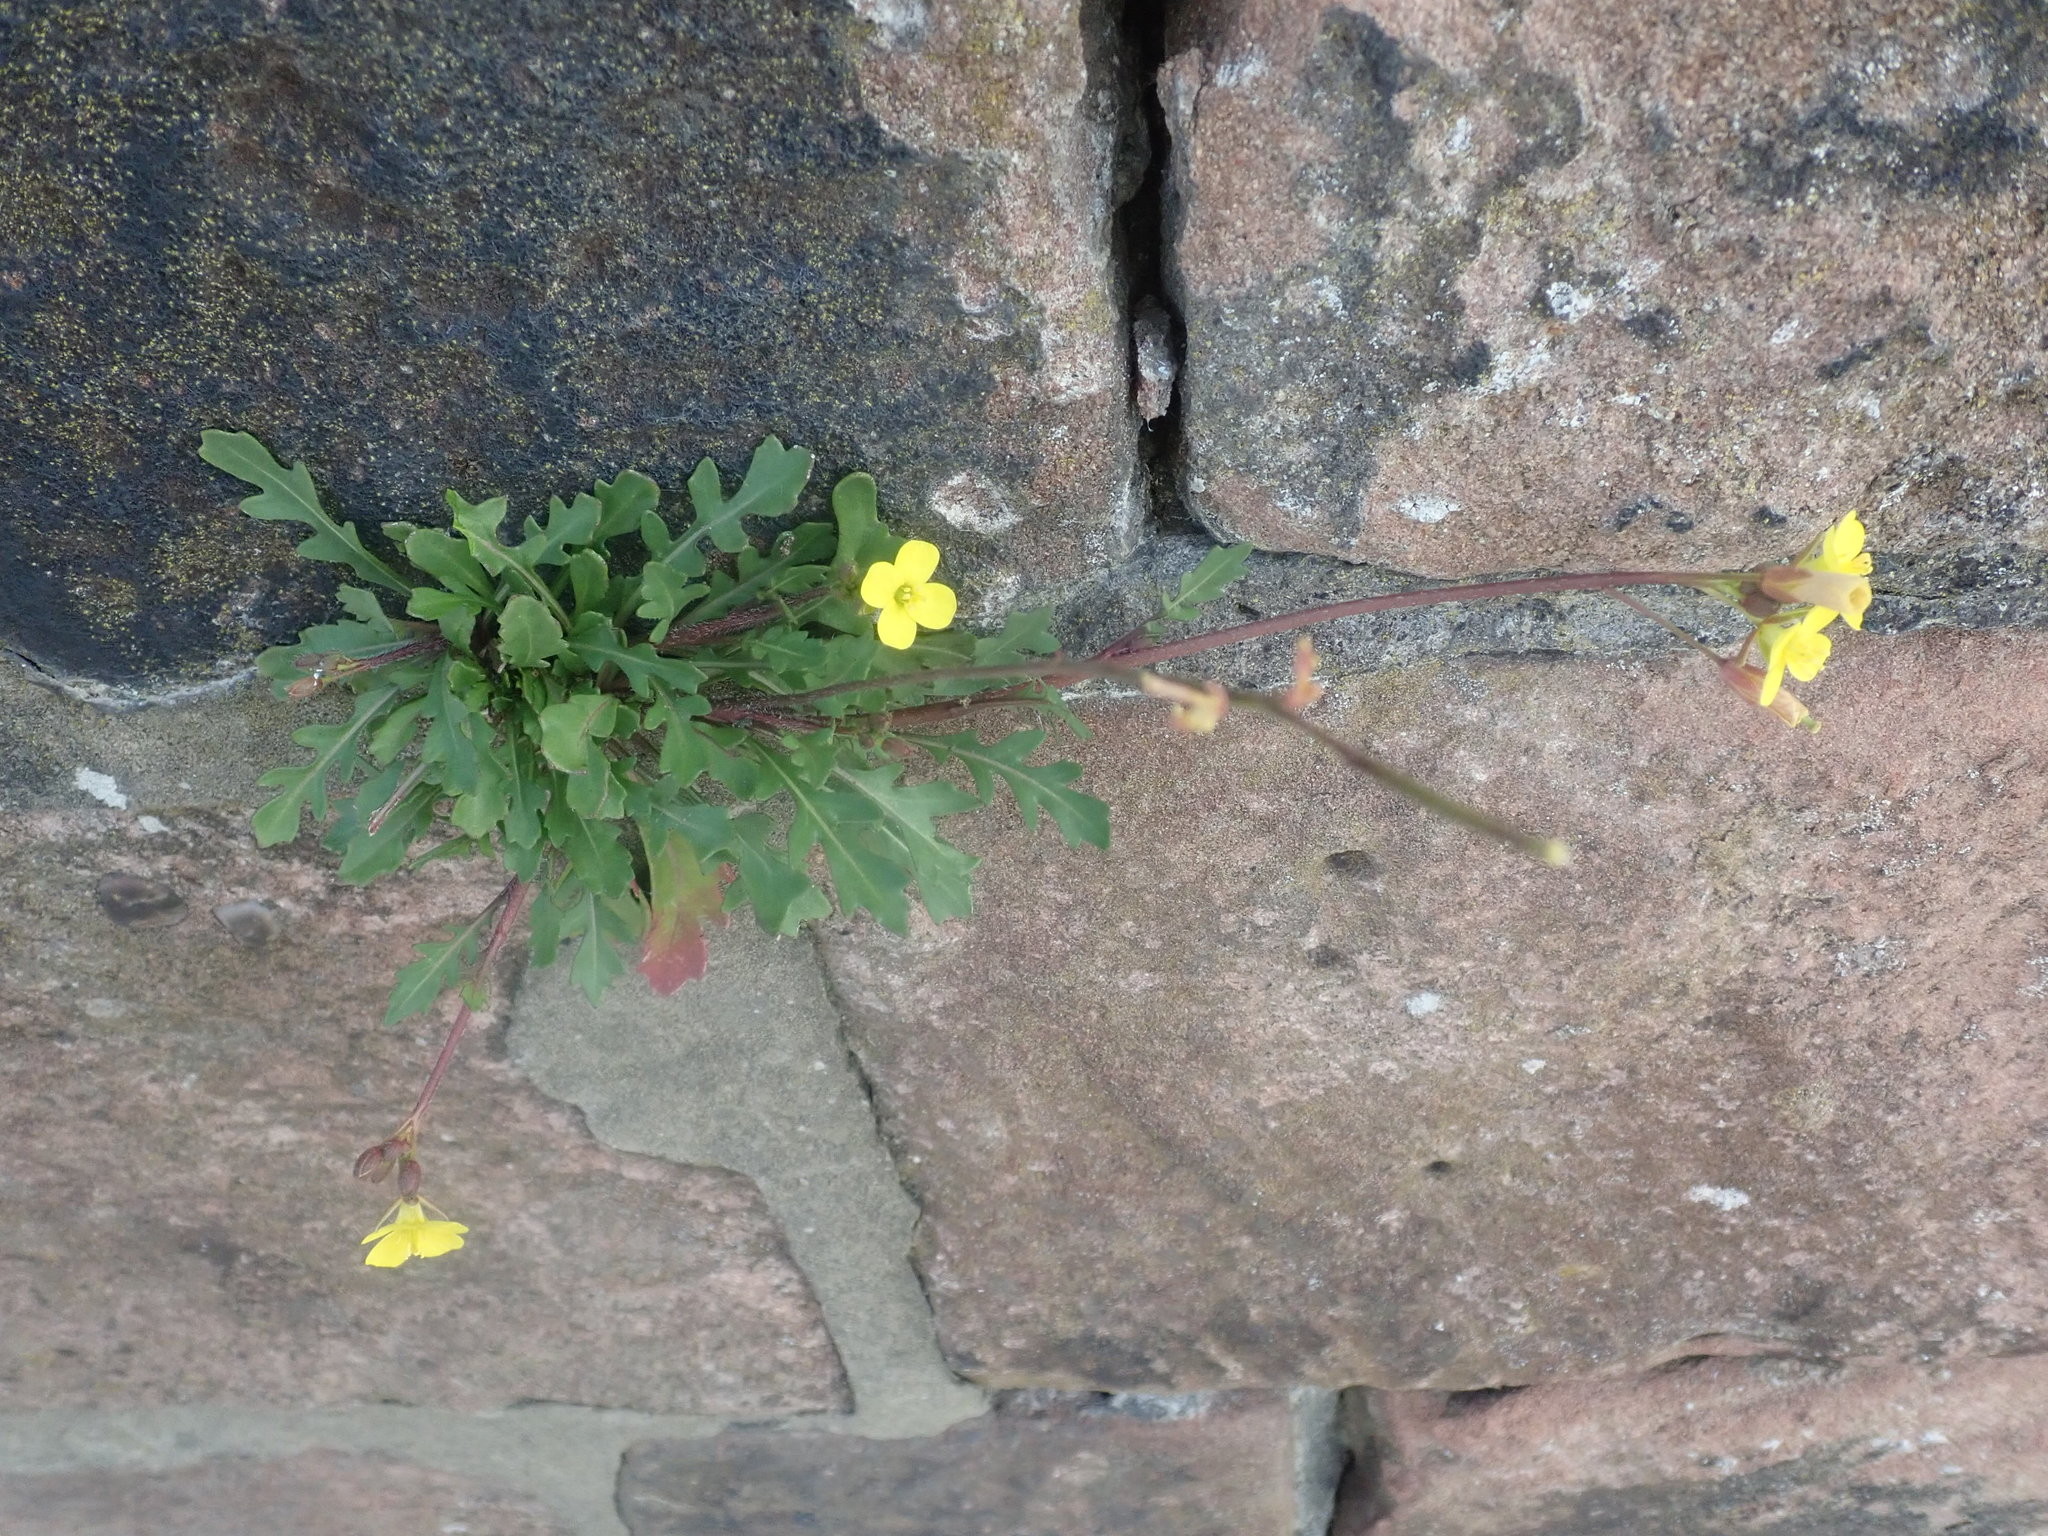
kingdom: Plantae
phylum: Tracheophyta
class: Magnoliopsida
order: Brassicales
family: Brassicaceae
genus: Diplotaxis
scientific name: Diplotaxis muralis
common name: Annual wall-rocket
